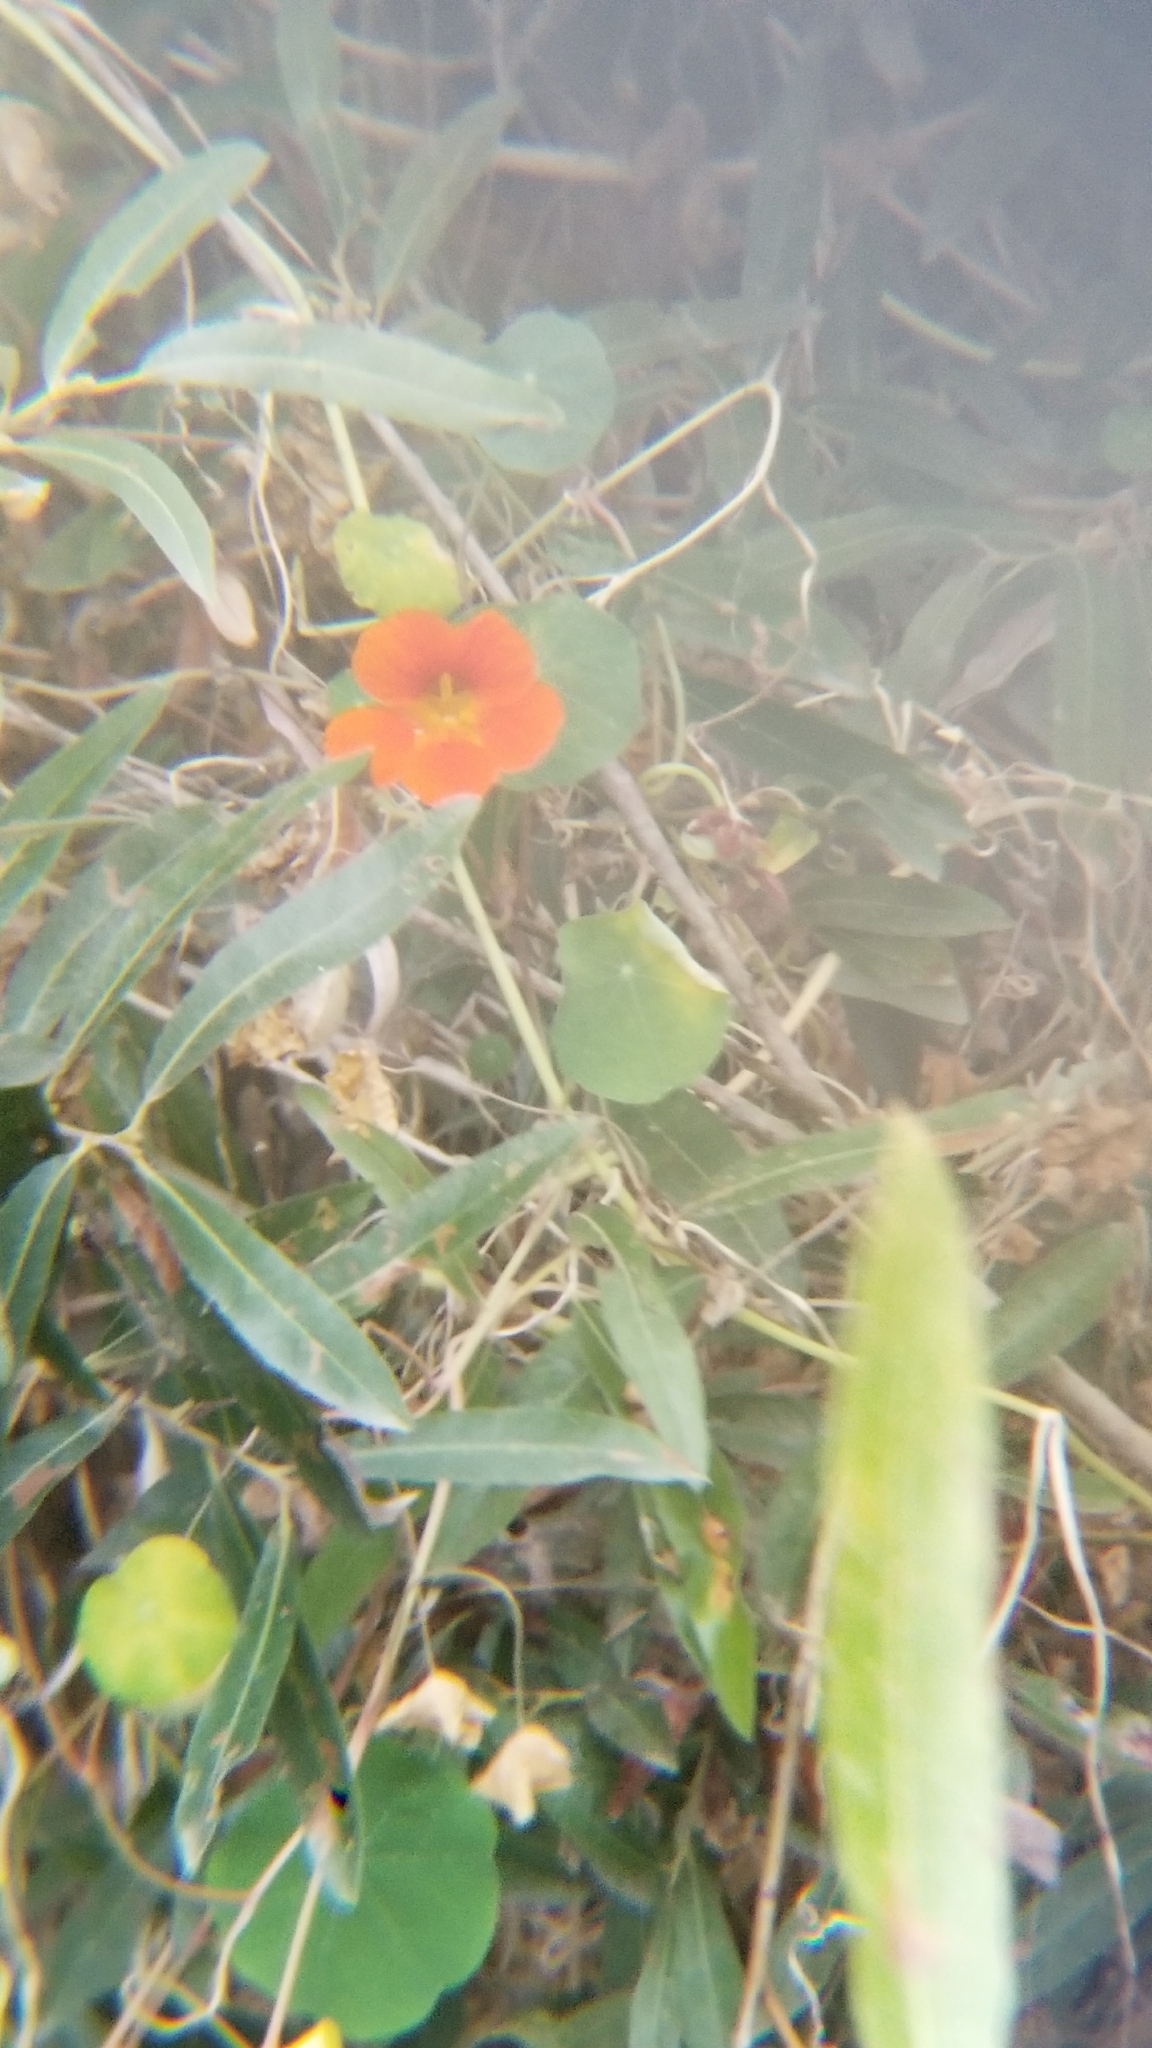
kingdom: Plantae
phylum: Tracheophyta
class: Magnoliopsida
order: Brassicales
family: Tropaeolaceae
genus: Tropaeolum
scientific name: Tropaeolum majus
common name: Nasturtium
